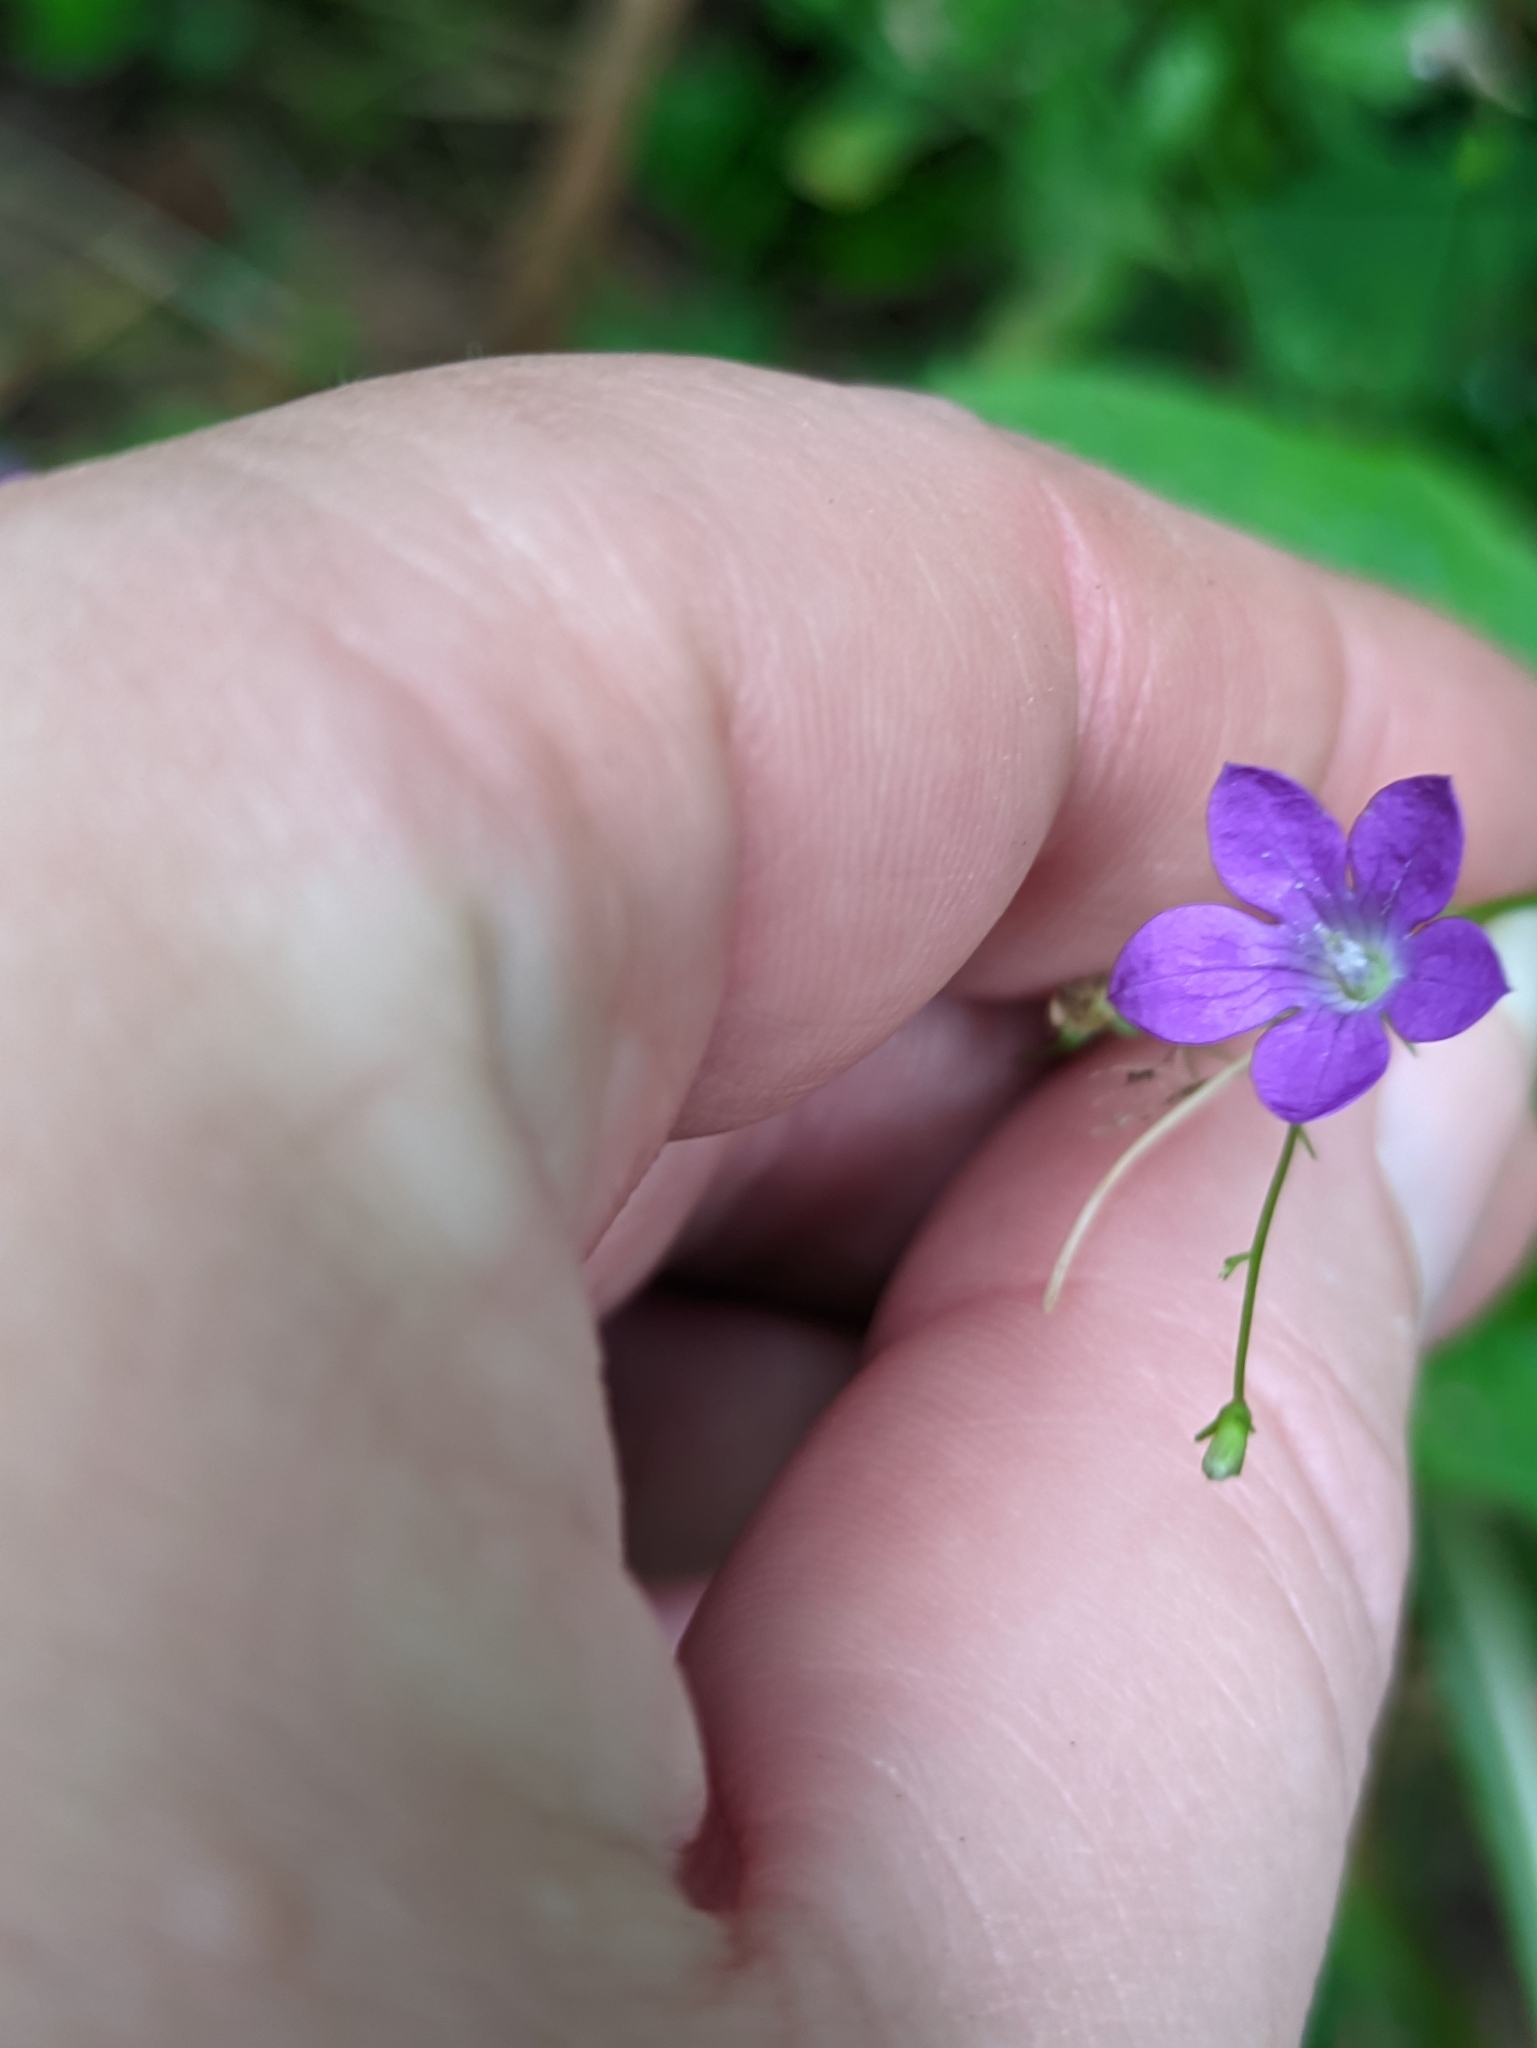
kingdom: Plantae
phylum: Tracheophyta
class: Magnoliopsida
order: Asterales
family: Campanulaceae
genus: Campanula
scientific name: Campanula patula
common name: Spreading bellflower
